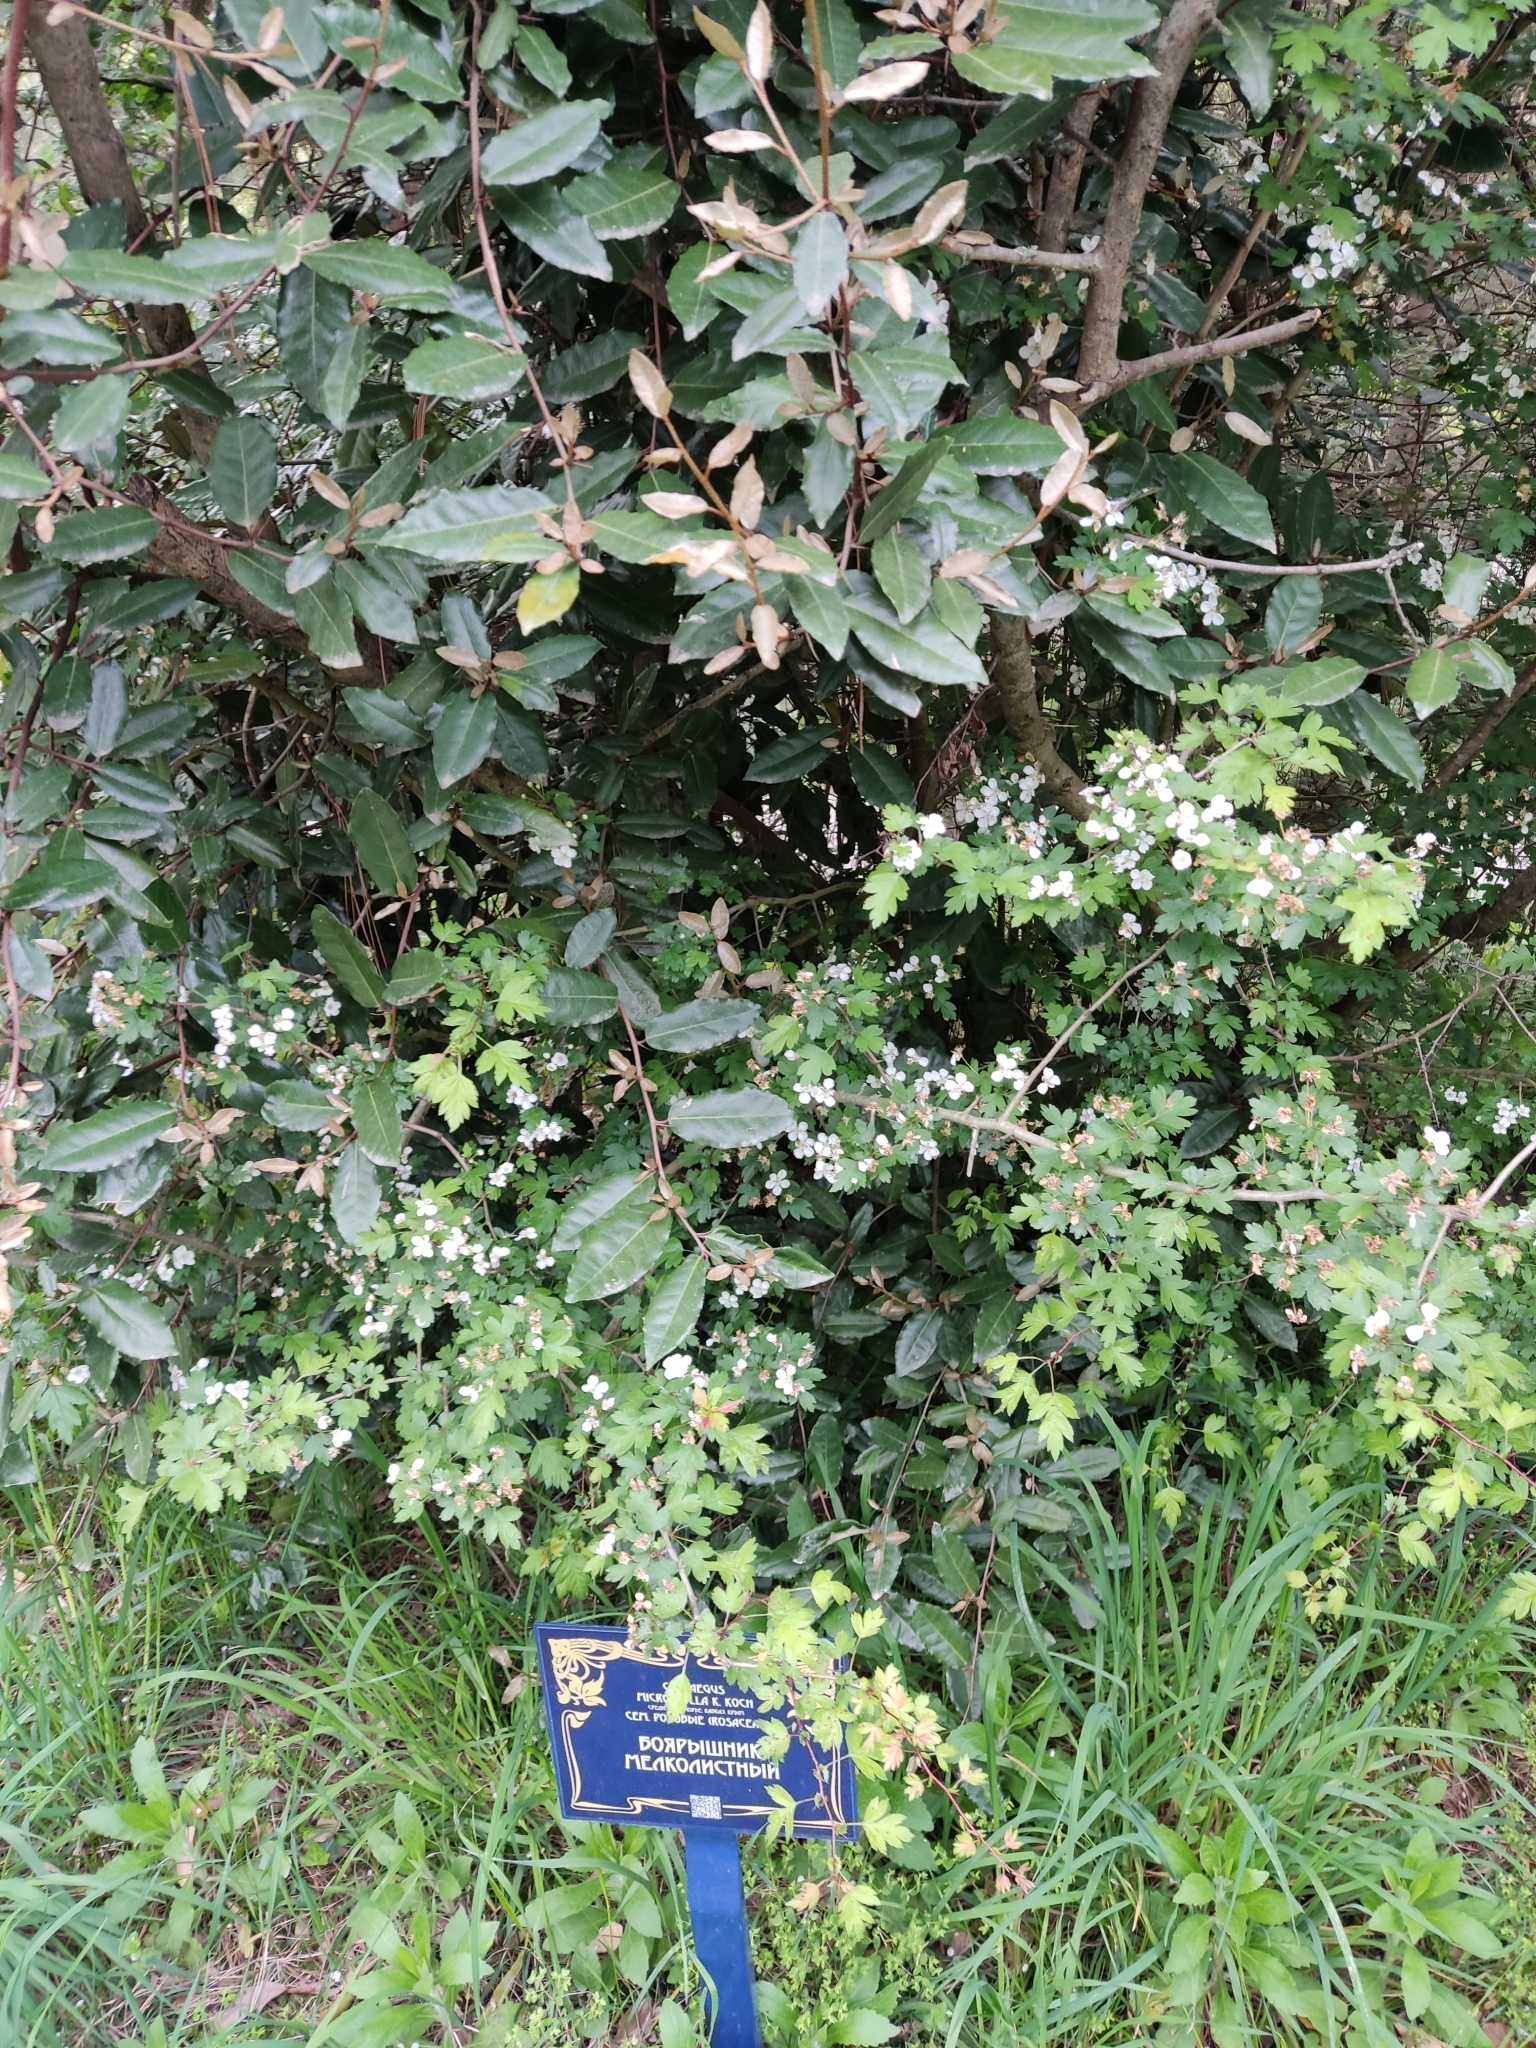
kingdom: Plantae
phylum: Tracheophyta
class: Magnoliopsida
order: Rosales
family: Rosaceae
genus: Crataegus
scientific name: Crataegus microphylla
